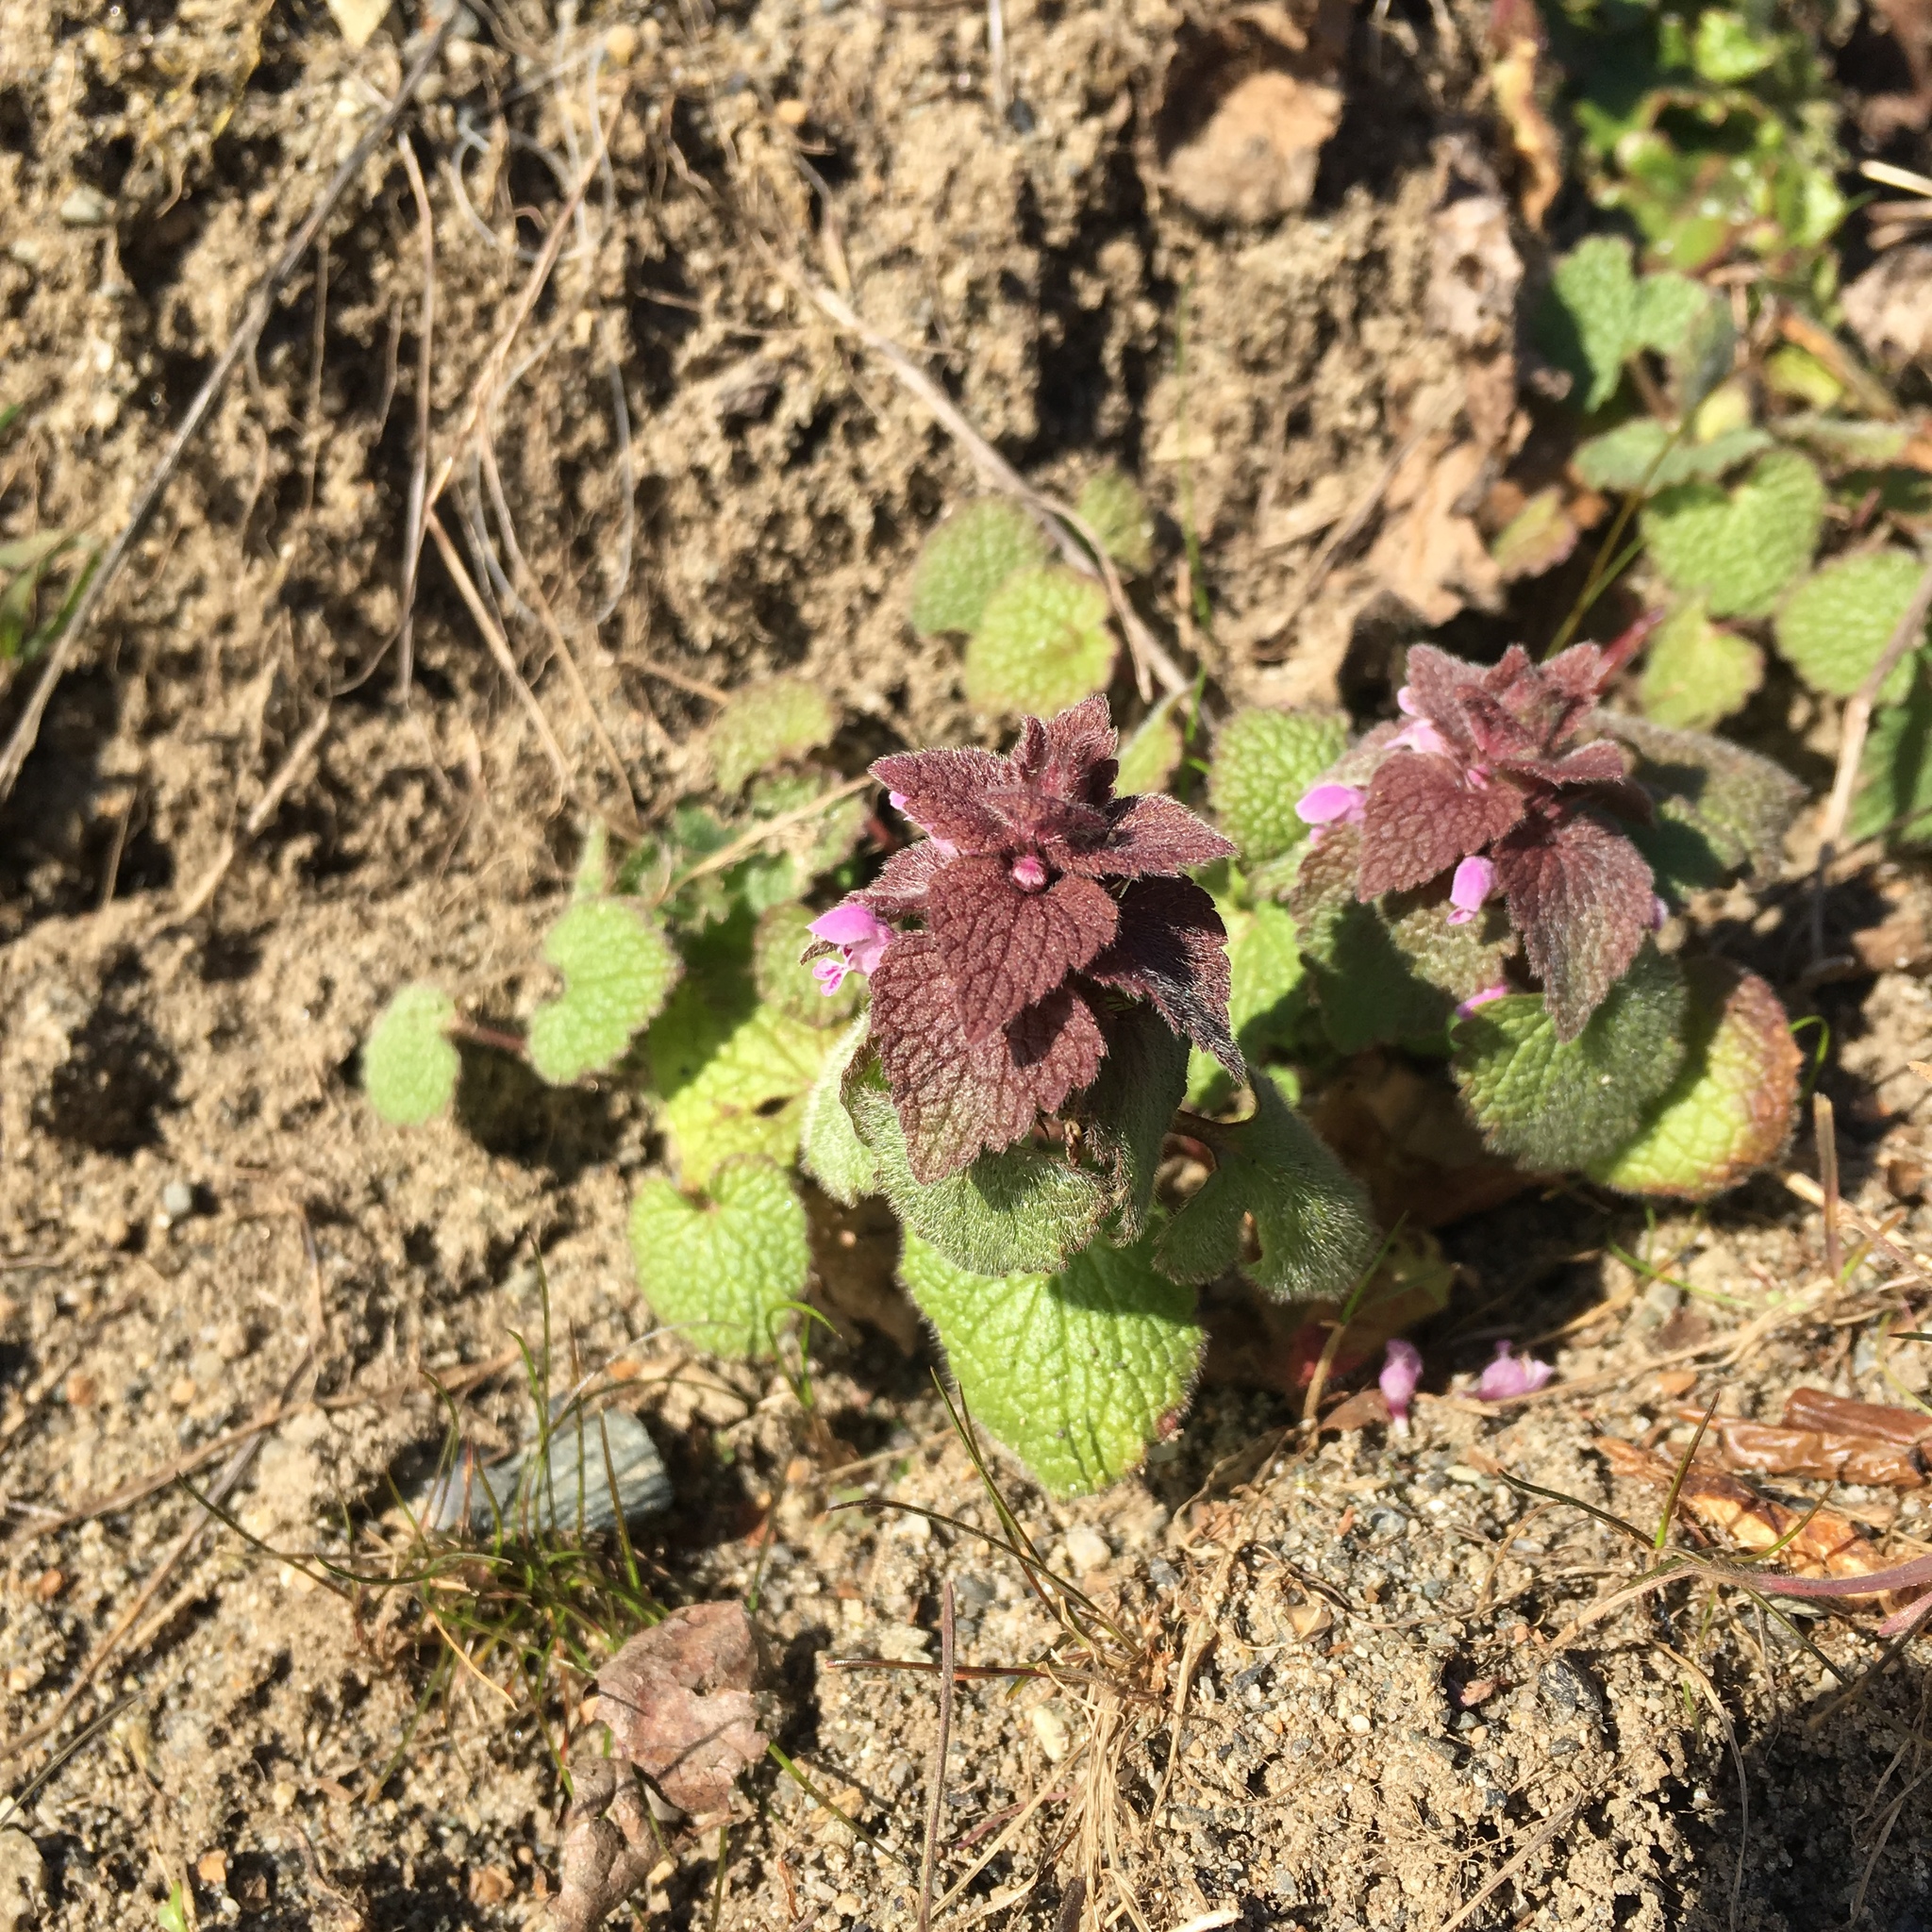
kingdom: Plantae
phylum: Tracheophyta
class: Magnoliopsida
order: Lamiales
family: Lamiaceae
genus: Lamium
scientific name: Lamium purpureum
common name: Red dead-nettle
